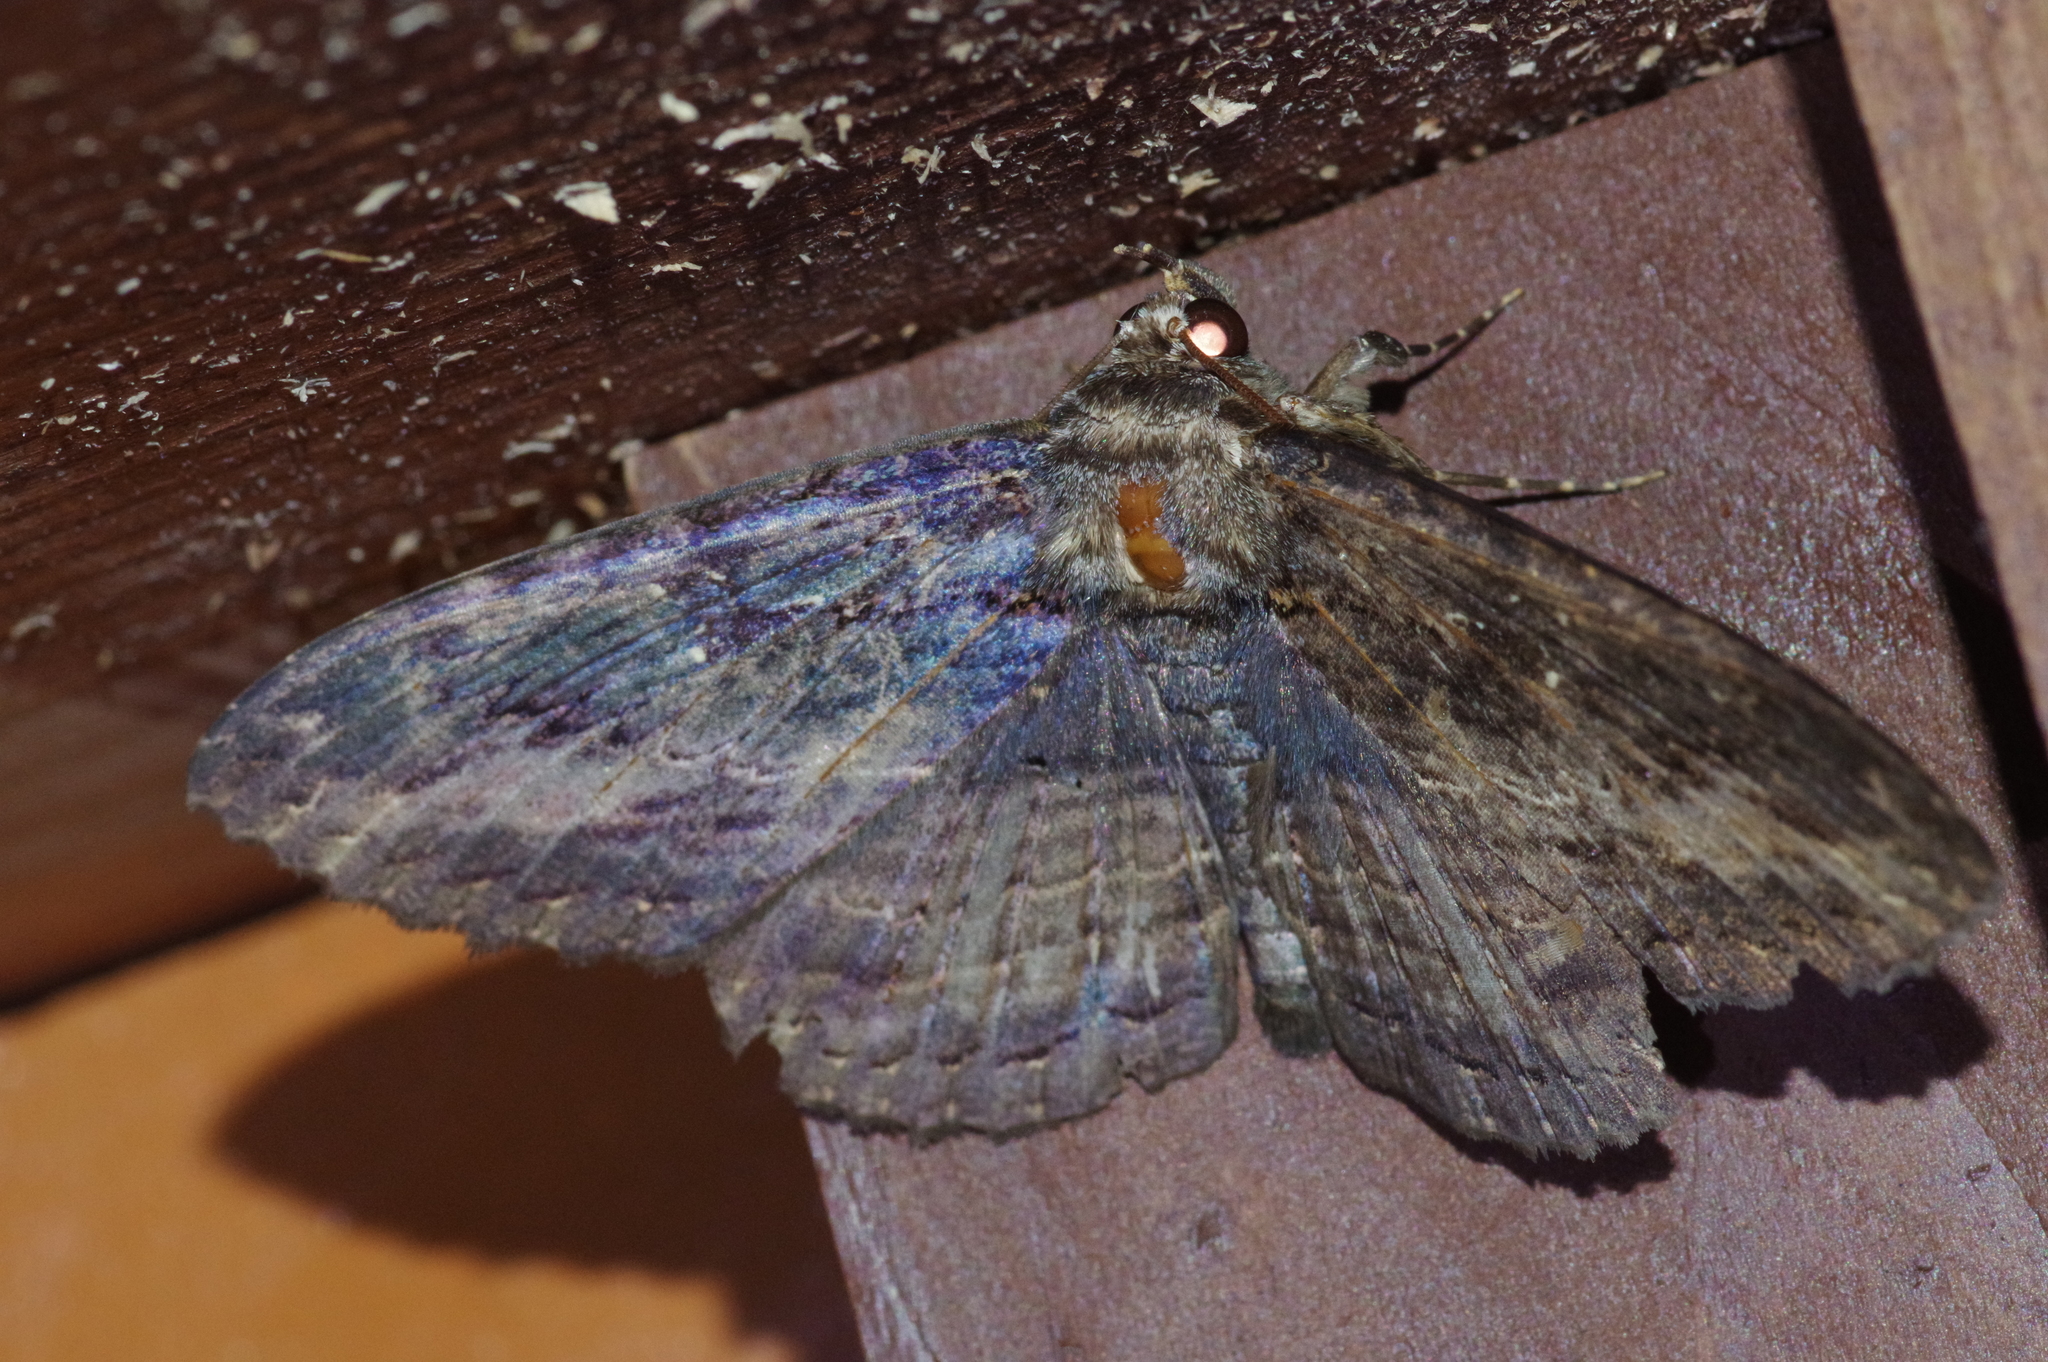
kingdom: Animalia
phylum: Arthropoda
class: Insecta
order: Lepidoptera
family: Erebidae
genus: Anisoneura
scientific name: Anisoneura salebrosa
